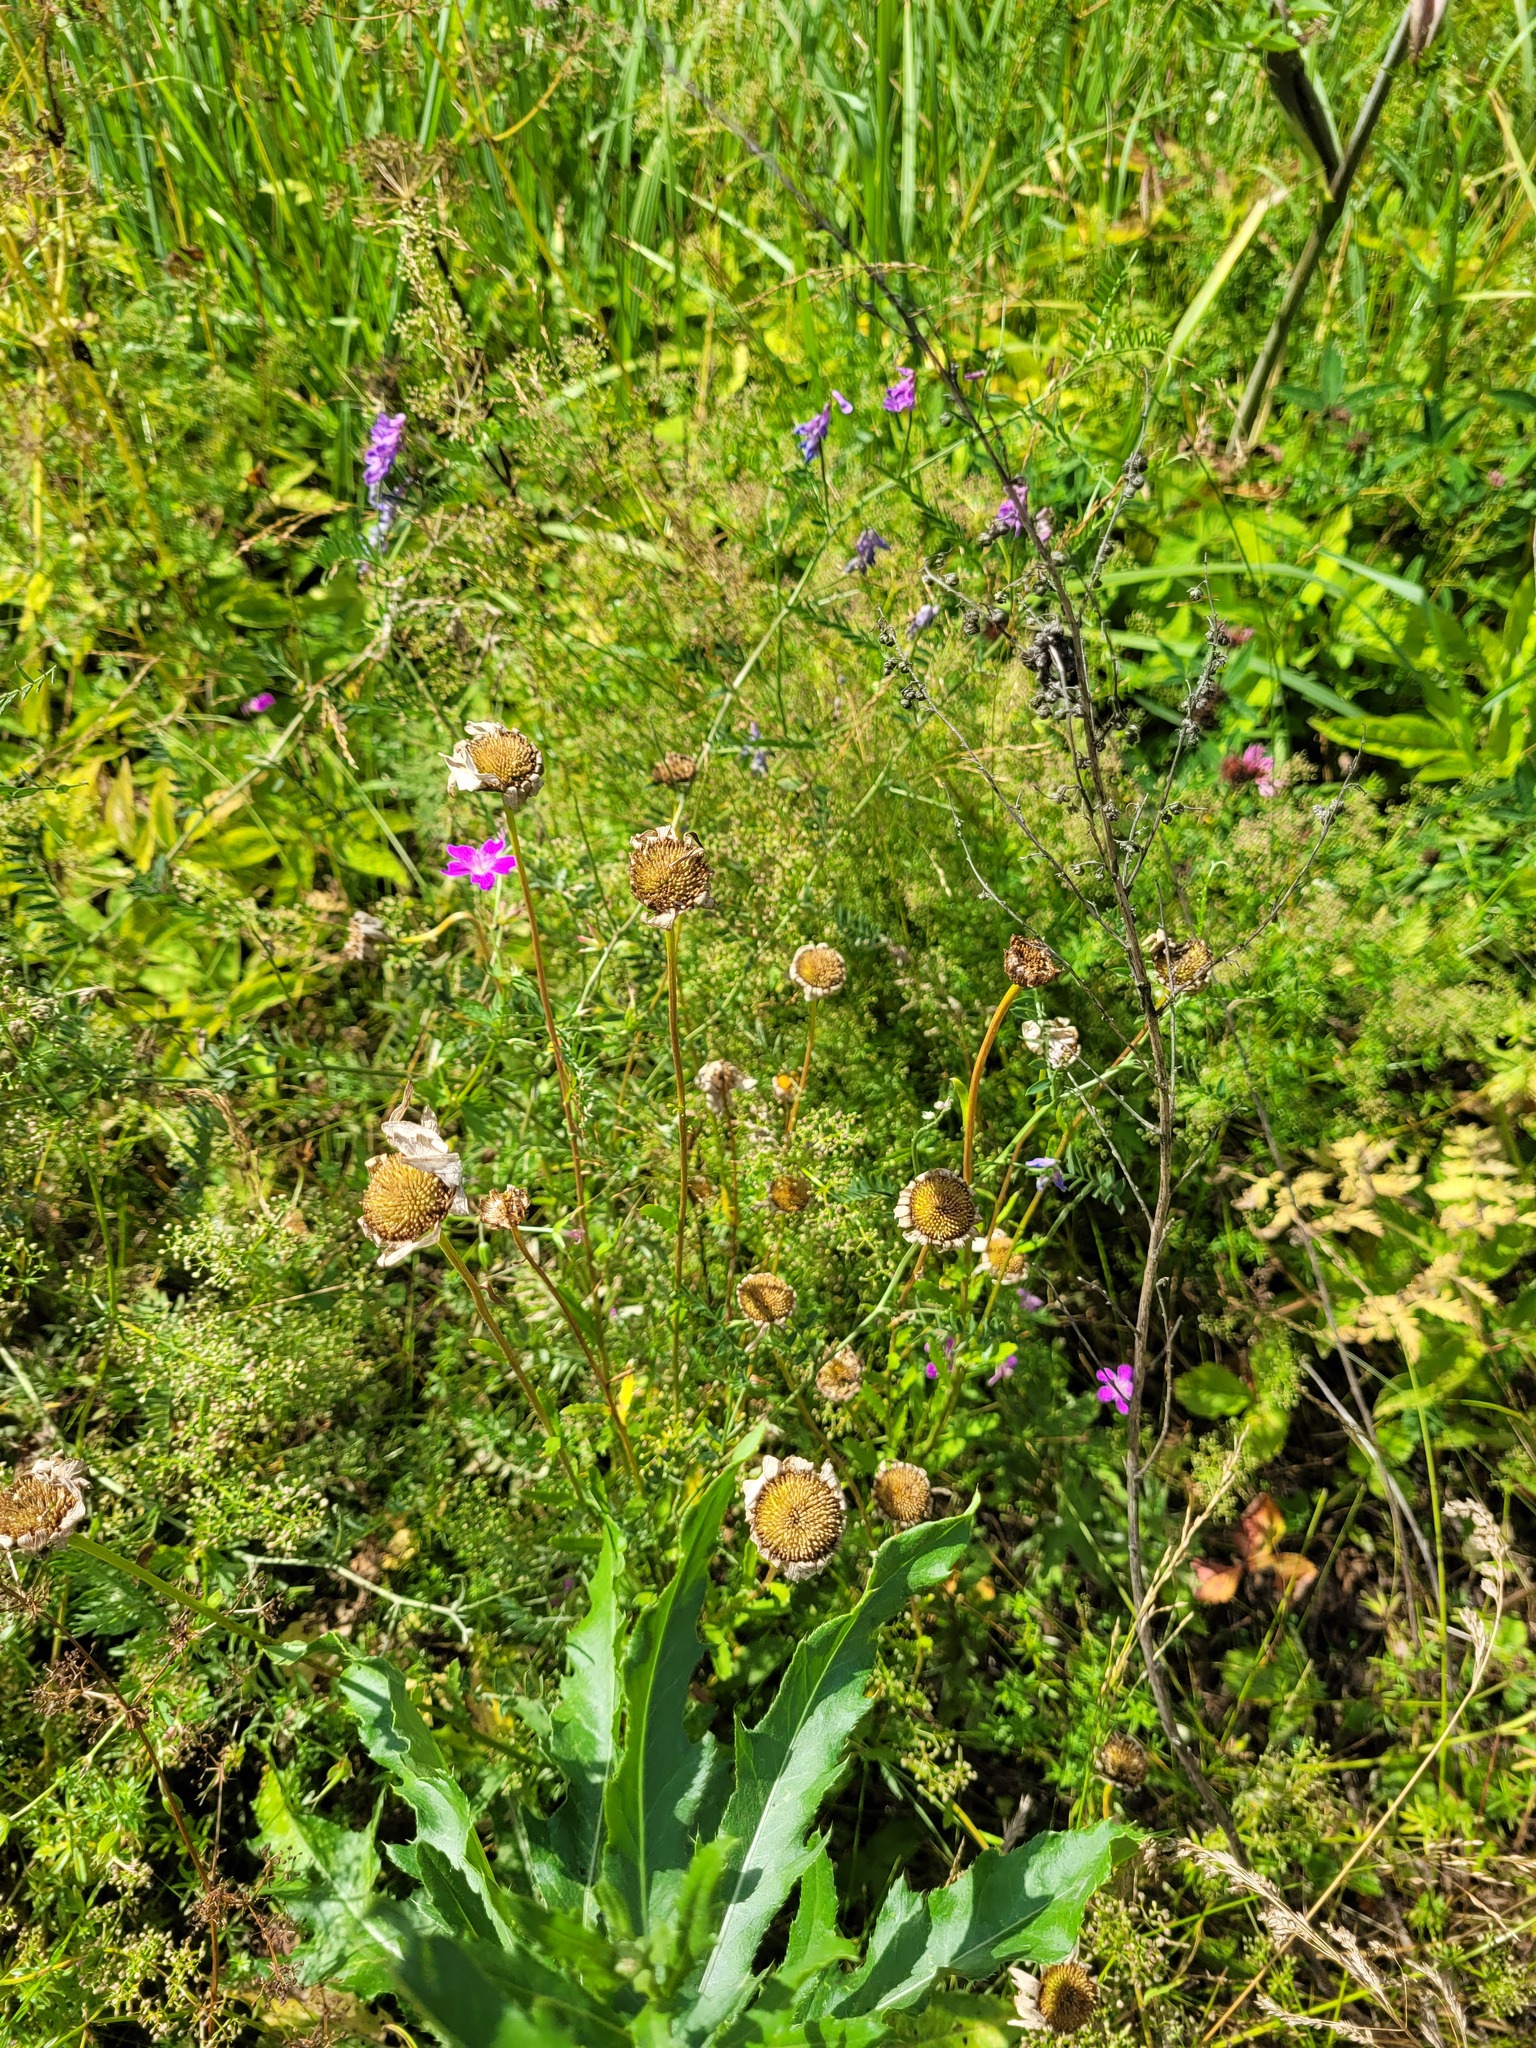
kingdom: Plantae
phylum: Tracheophyta
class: Magnoliopsida
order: Asterales
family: Asteraceae
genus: Leucanthemum
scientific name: Leucanthemum vulgare
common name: Oxeye daisy
